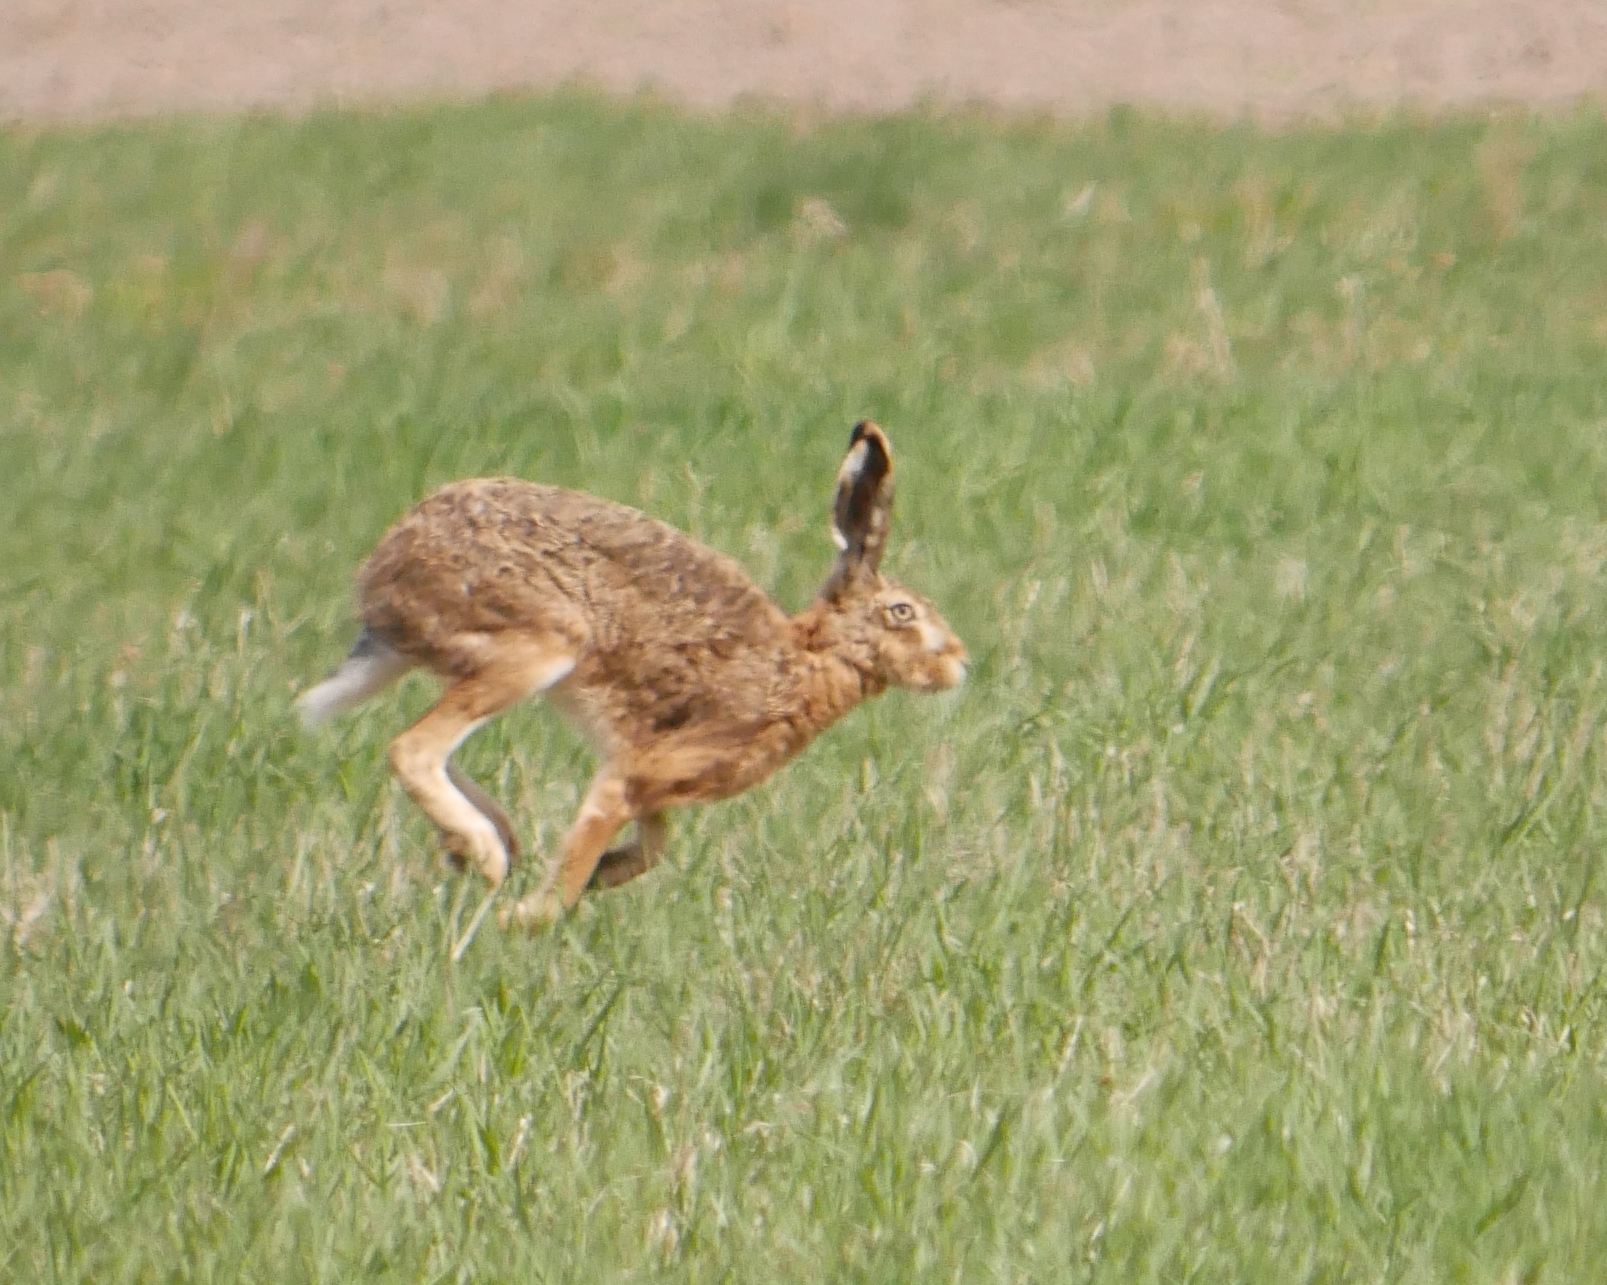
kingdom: Animalia
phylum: Chordata
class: Mammalia
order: Lagomorpha
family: Leporidae
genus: Lepus
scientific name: Lepus europaeus
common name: European hare
